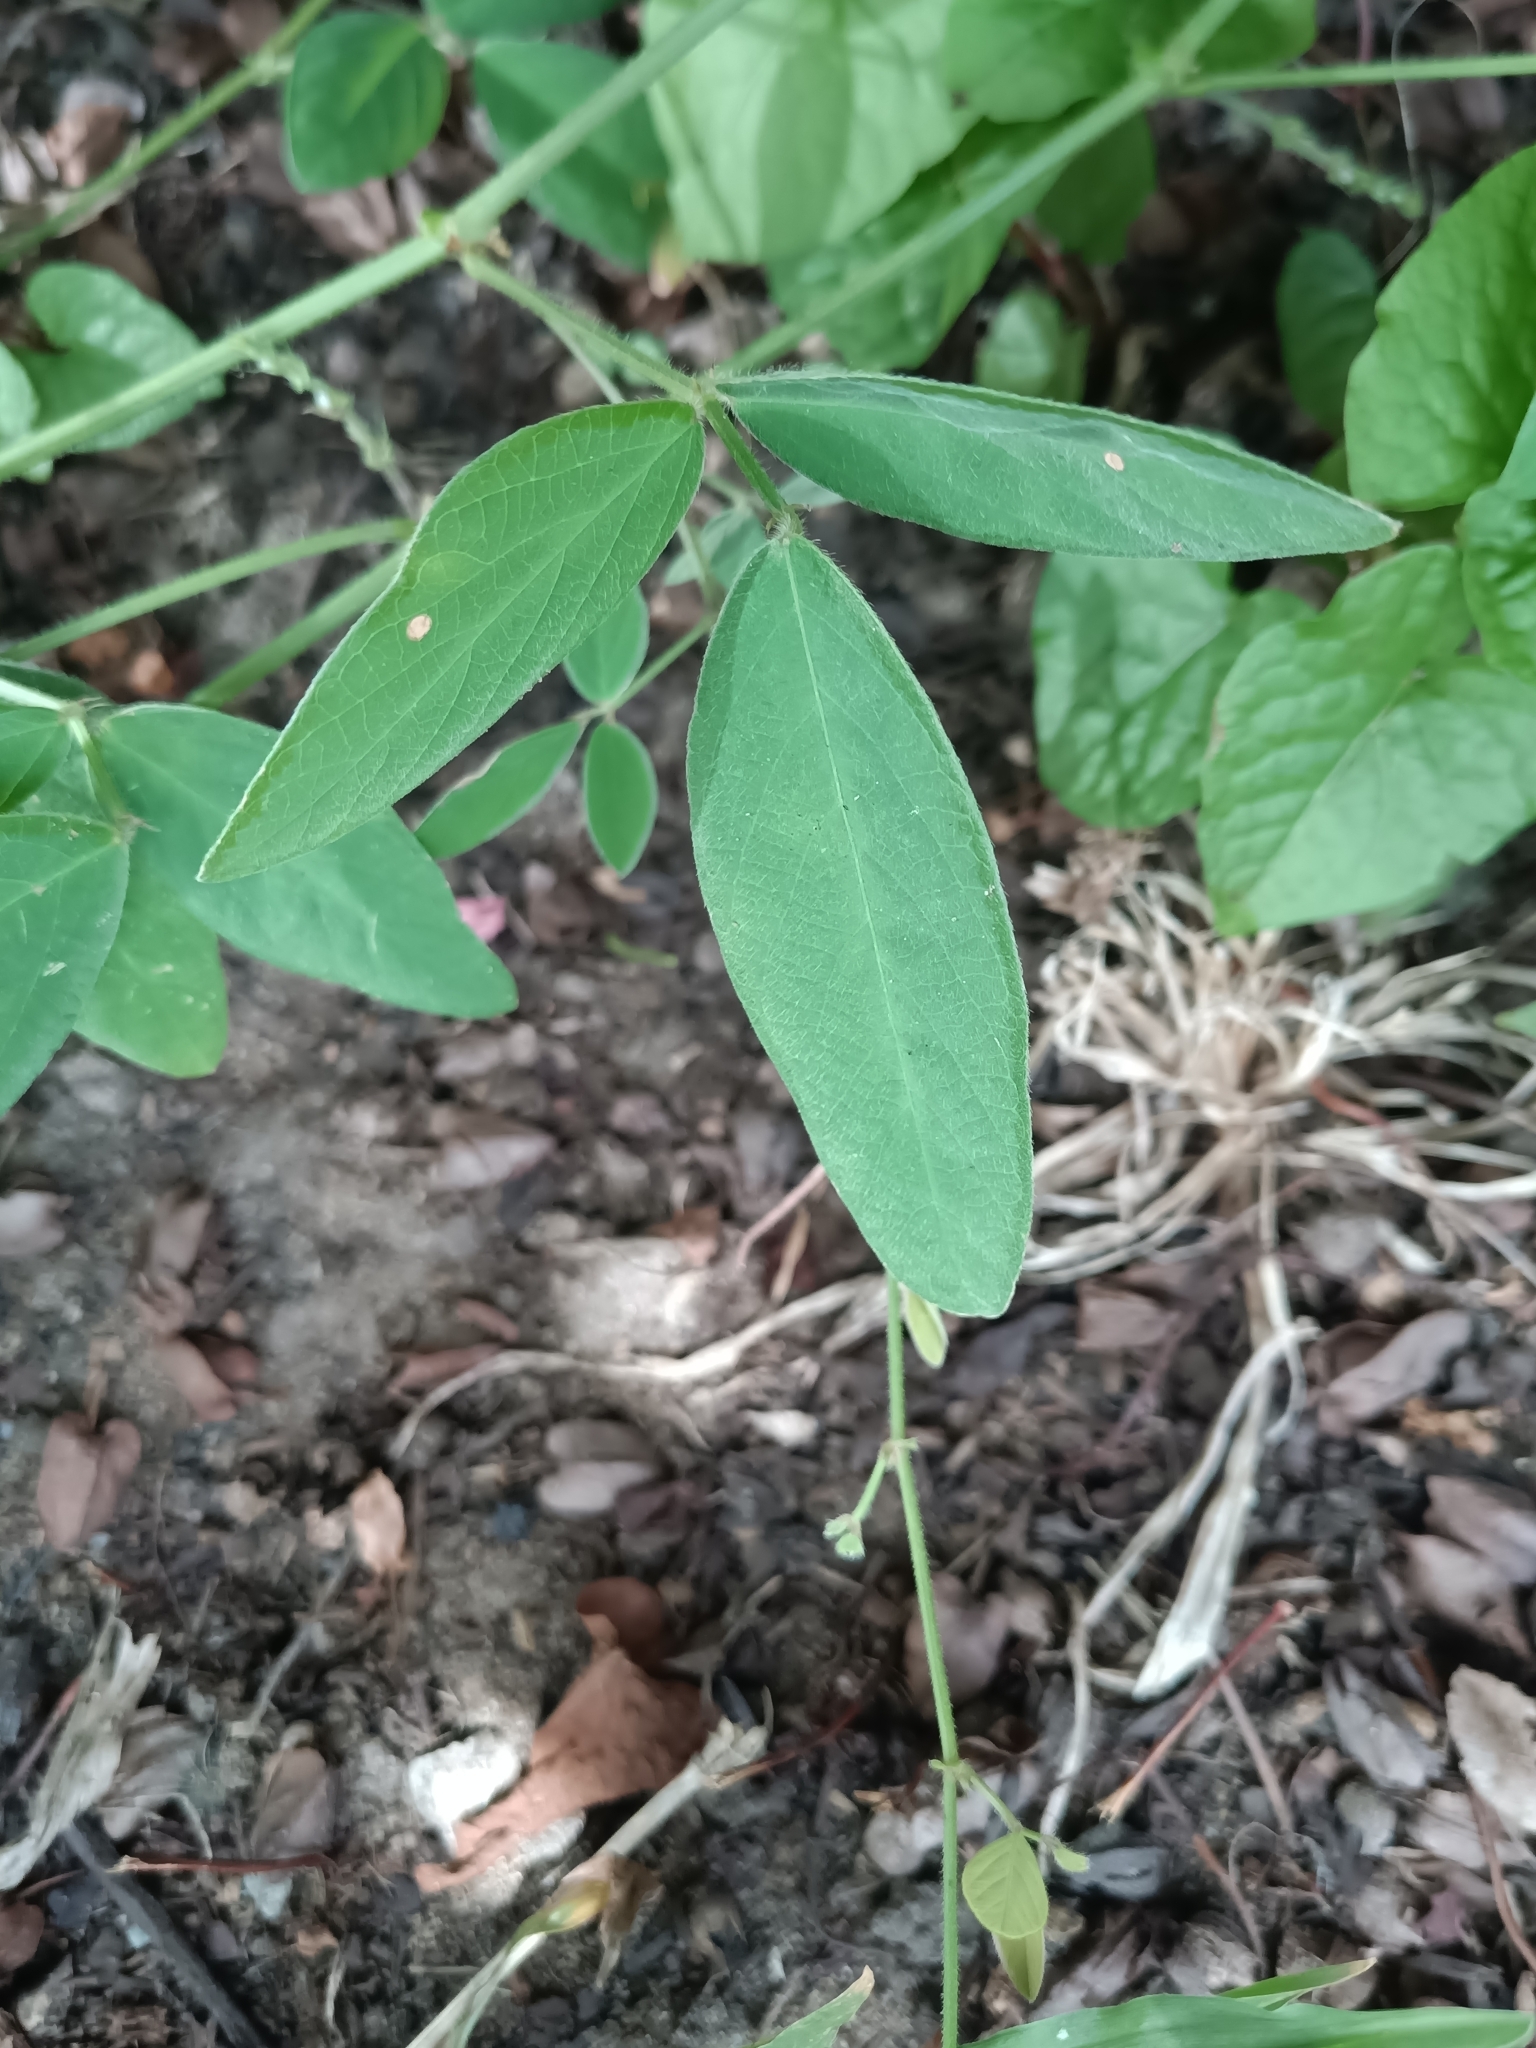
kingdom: Plantae
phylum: Tracheophyta
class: Magnoliopsida
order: Fabales
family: Fabaceae
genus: Desmodium
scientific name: Desmodium scorpiurus
